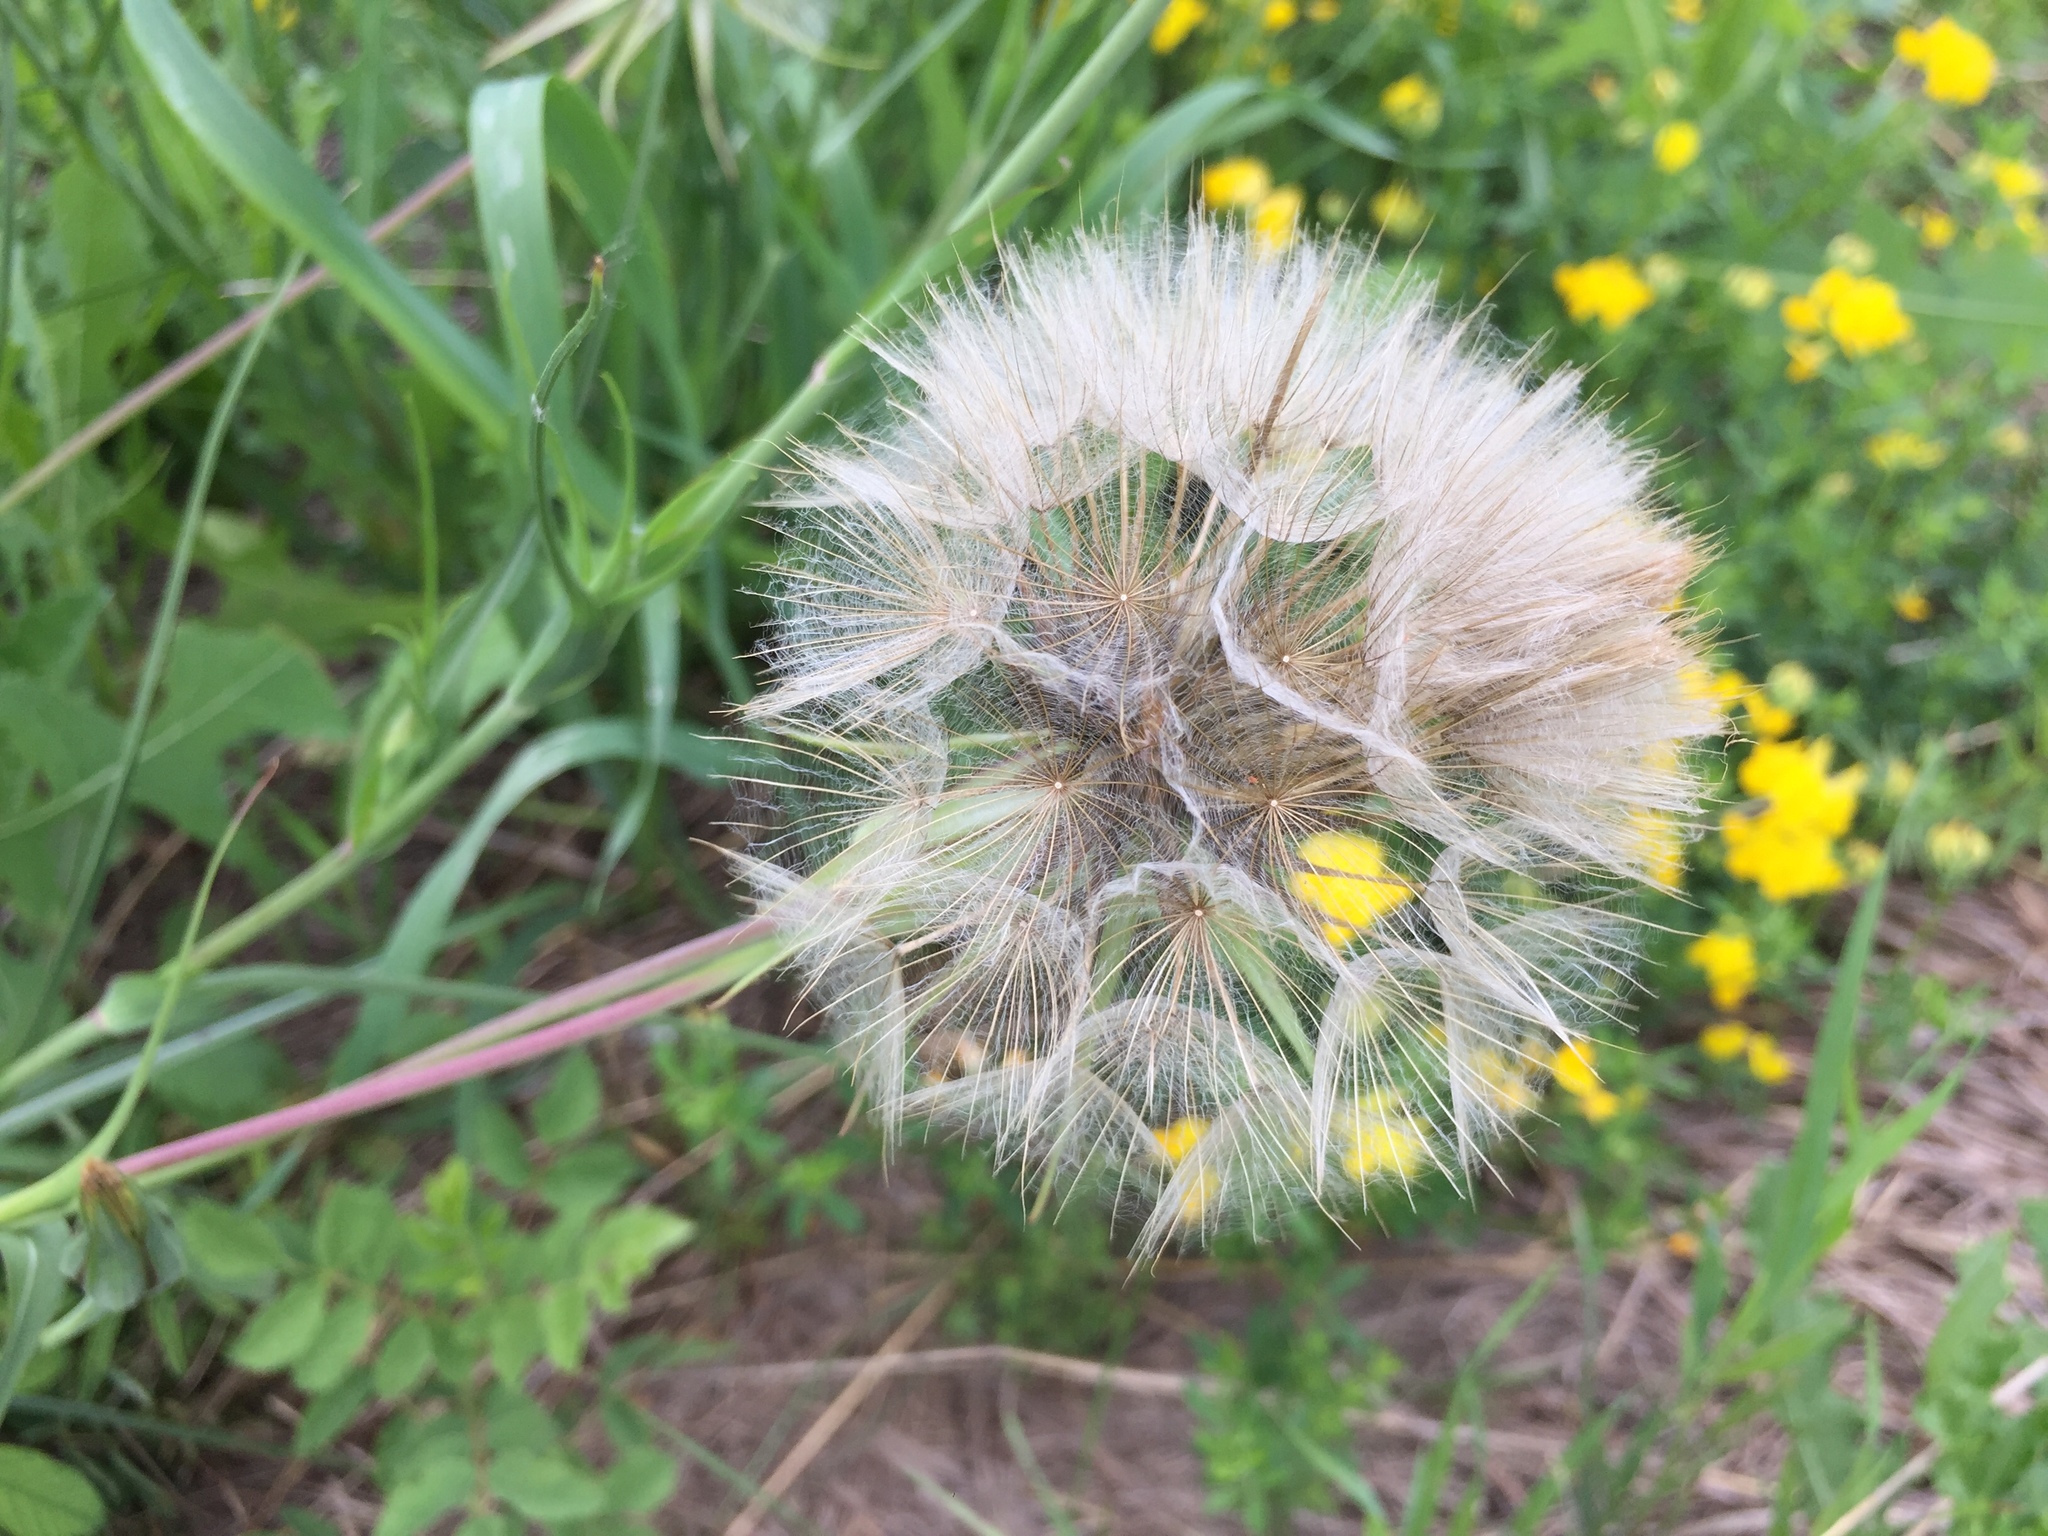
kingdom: Plantae
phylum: Tracheophyta
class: Magnoliopsida
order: Asterales
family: Asteraceae
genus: Tragopogon
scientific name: Tragopogon dubius
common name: Yellow salsify
